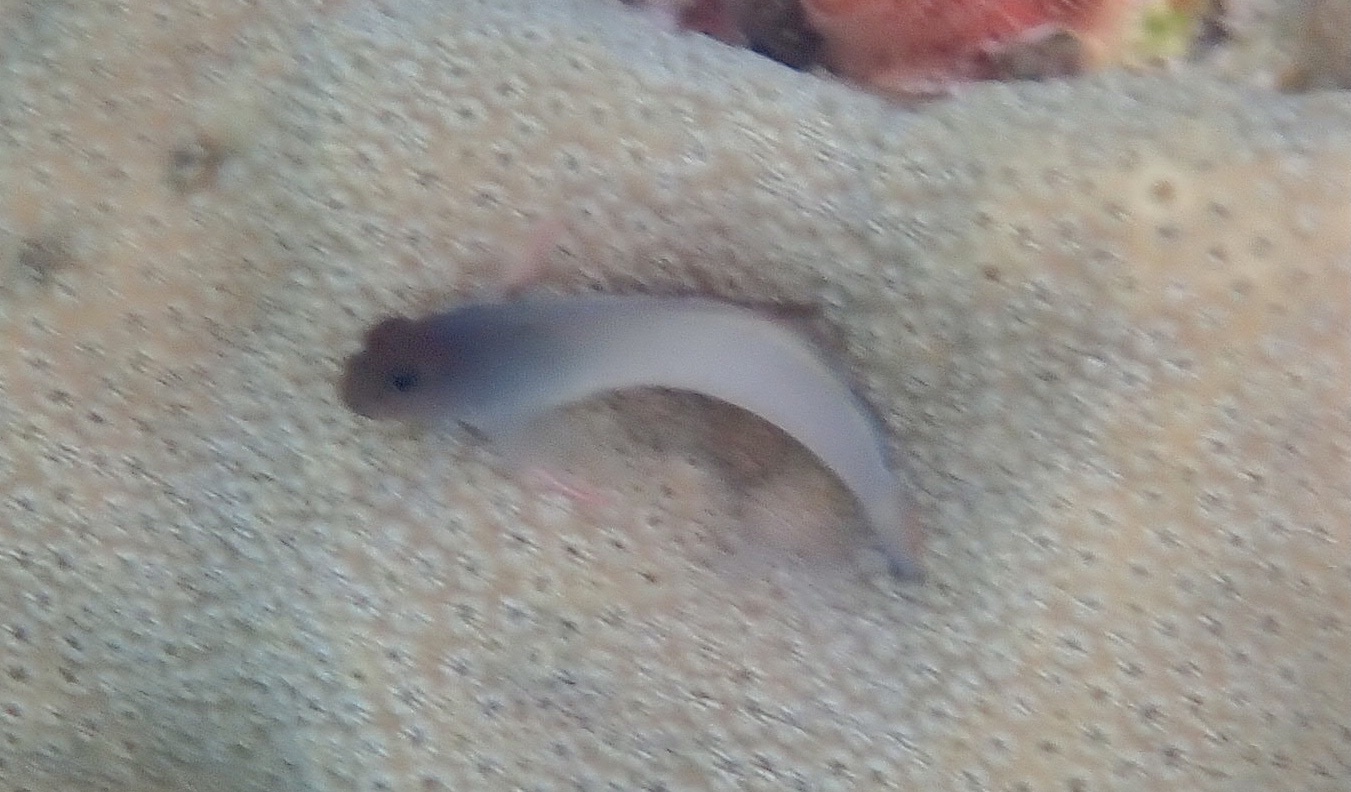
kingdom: Animalia
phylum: Chordata
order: Perciformes
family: Blenniidae
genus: Ophioblennius
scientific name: Ophioblennius macclurei
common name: Redlip blenny
